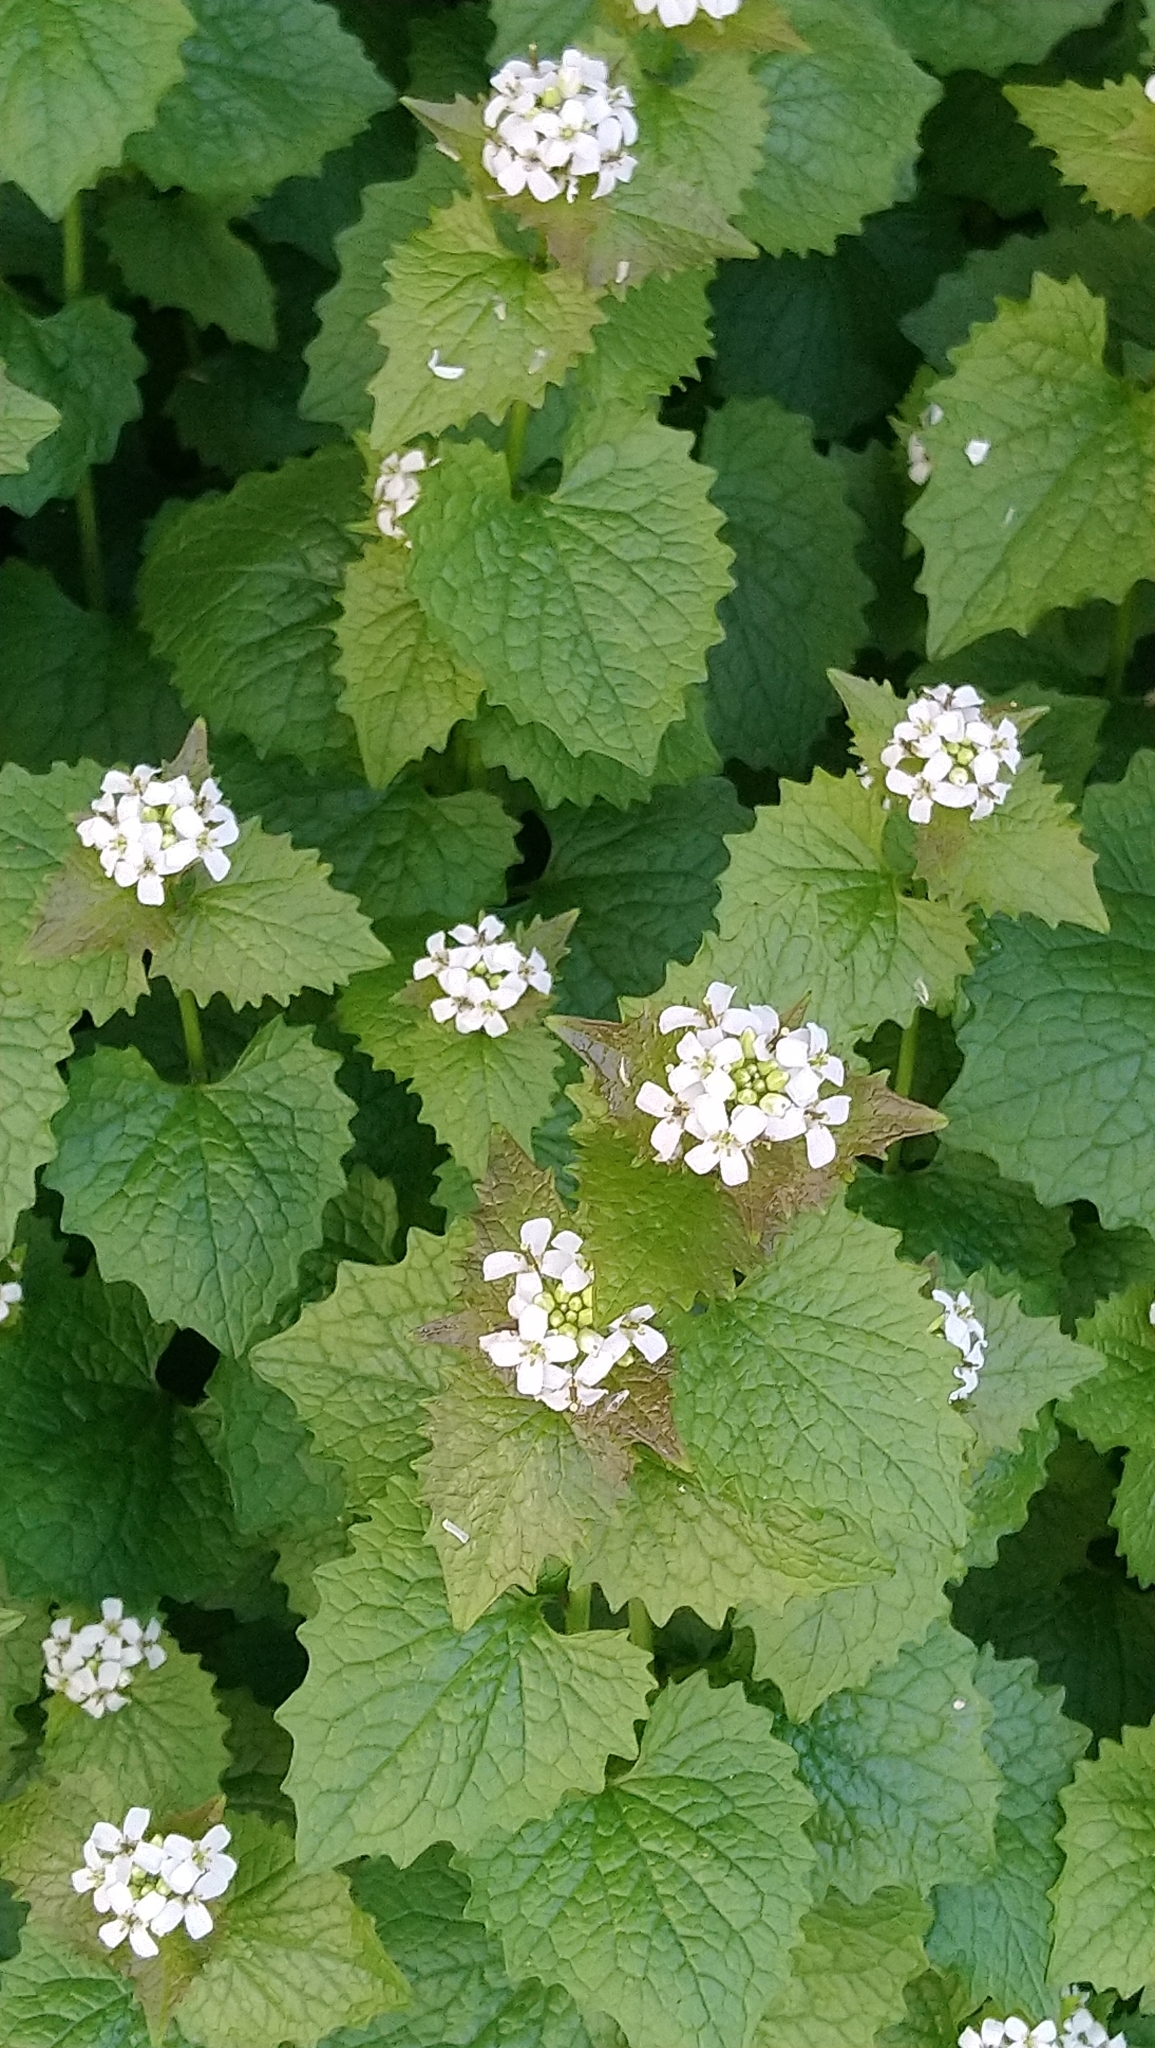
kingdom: Plantae
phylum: Tracheophyta
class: Magnoliopsida
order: Brassicales
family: Brassicaceae
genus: Alliaria
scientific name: Alliaria petiolata
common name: Garlic mustard
